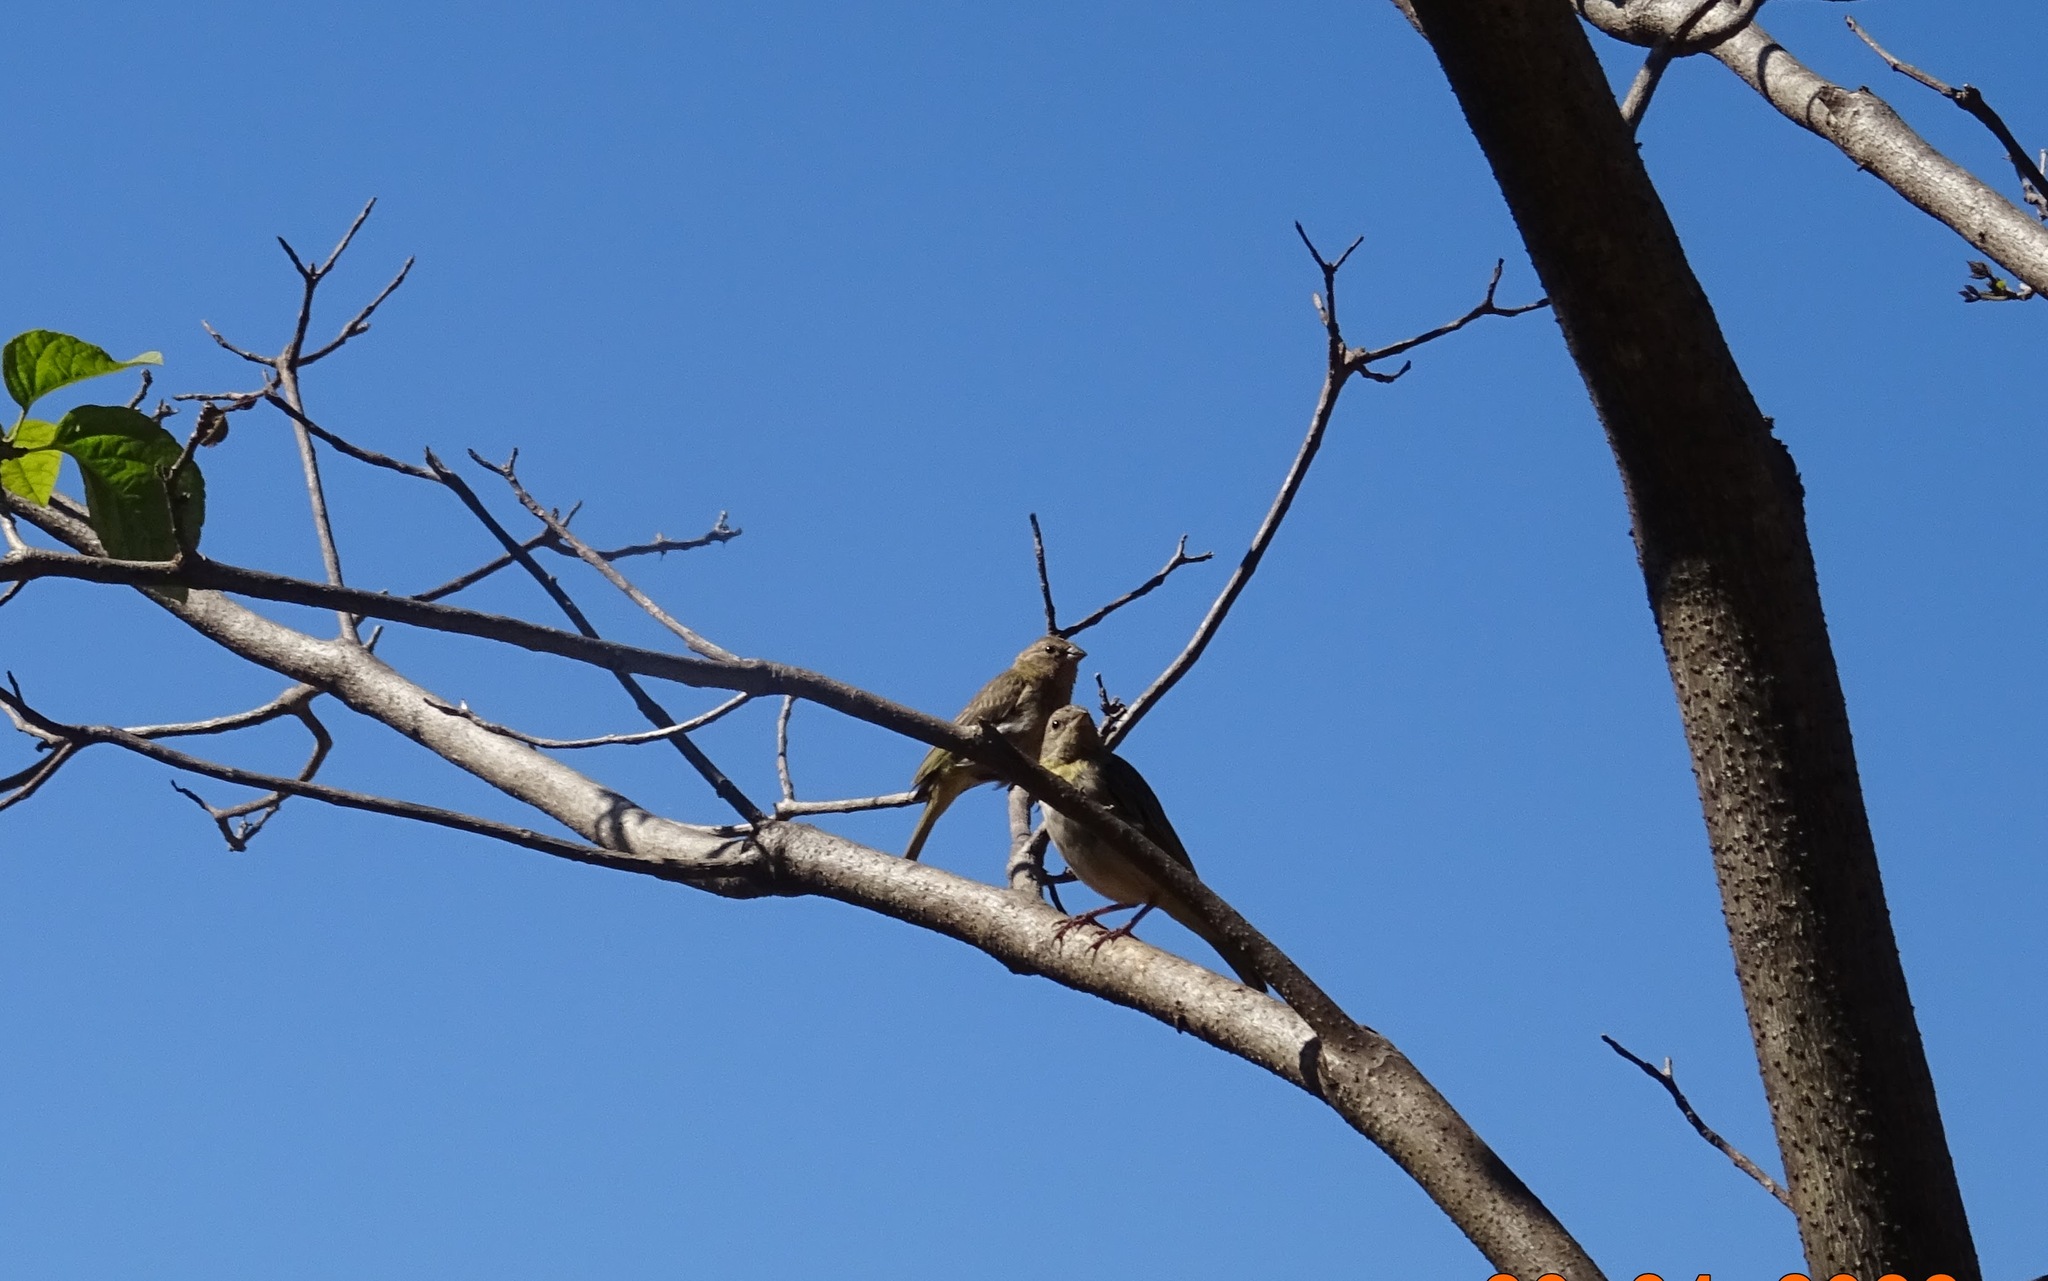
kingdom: Animalia
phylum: Chordata
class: Aves
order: Passeriformes
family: Thraupidae
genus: Sicalis
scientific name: Sicalis flaveola
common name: Saffron finch
